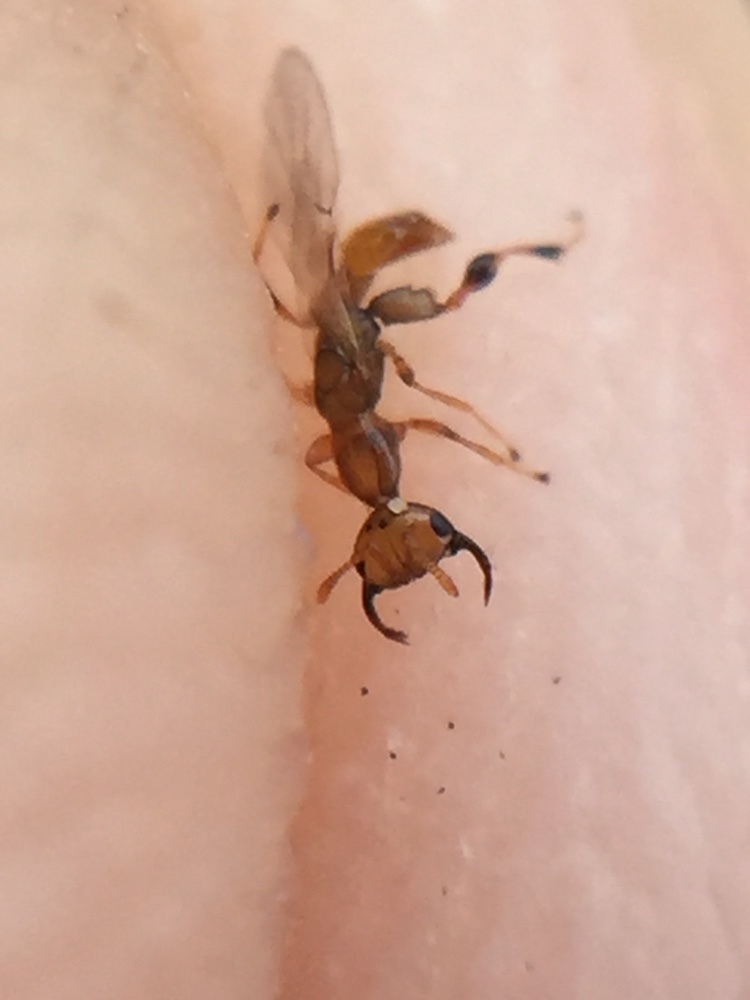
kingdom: Animalia
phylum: Arthropoda
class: Insecta
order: Hymenoptera
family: Agaonidae
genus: Odontofroggatia
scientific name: Odontofroggatia galili
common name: Fig wasp
